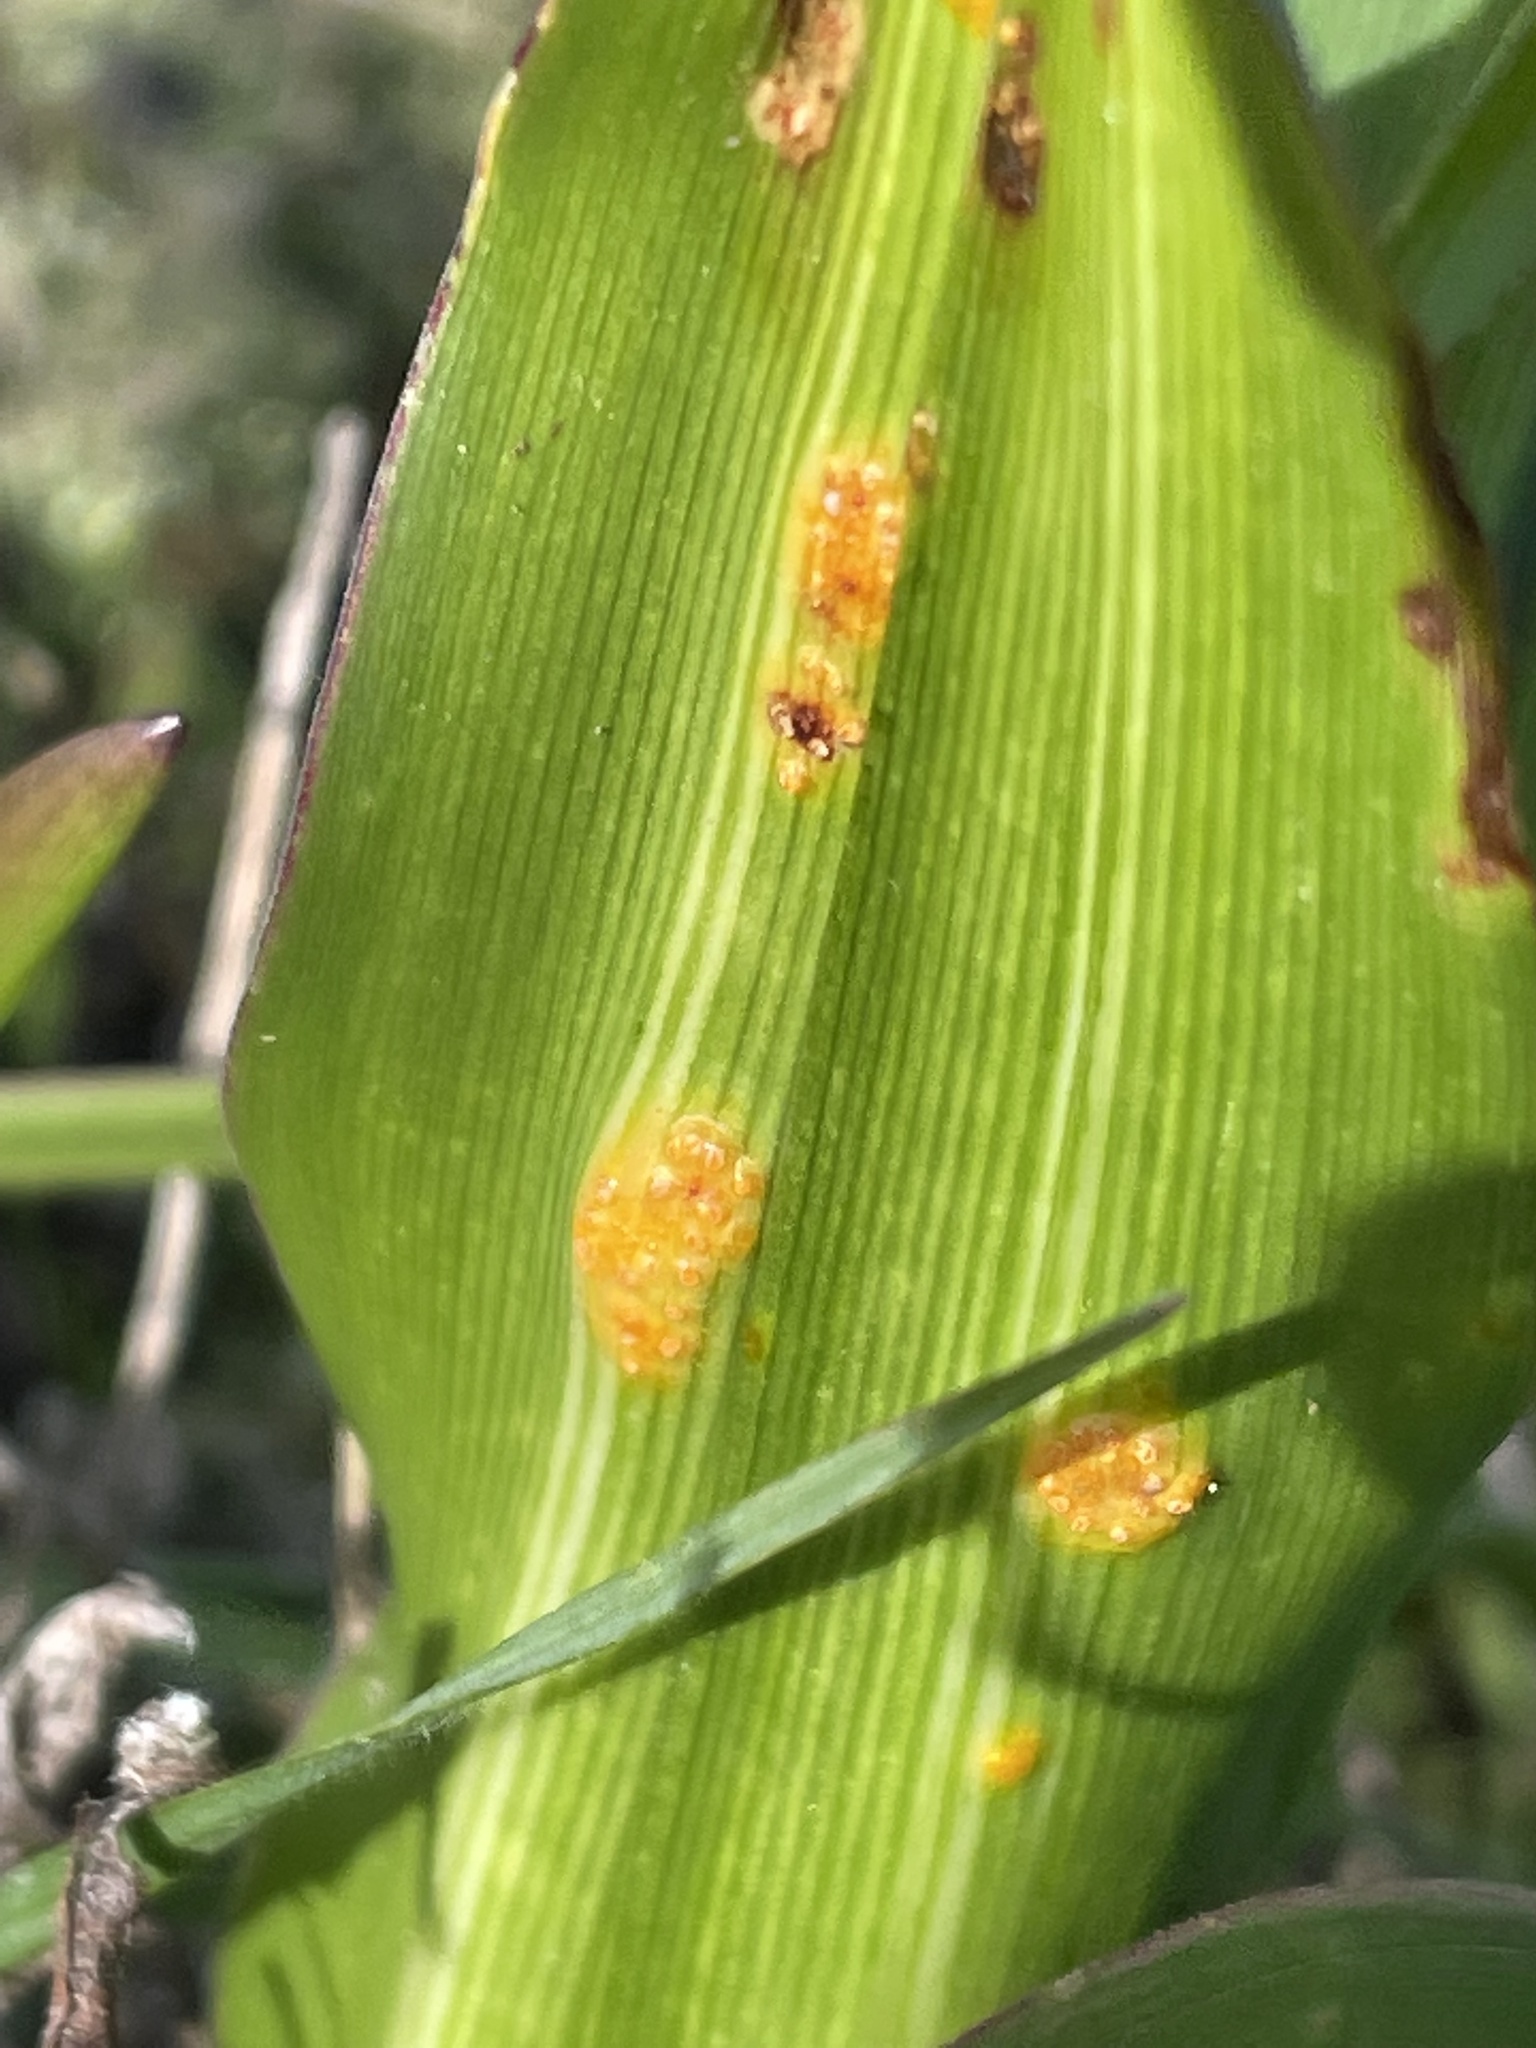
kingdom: Fungi
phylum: Basidiomycota
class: Pucciniomycetes
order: Pucciniales
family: Pucciniaceae
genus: Uromyces
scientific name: Uromyces chlorogali
